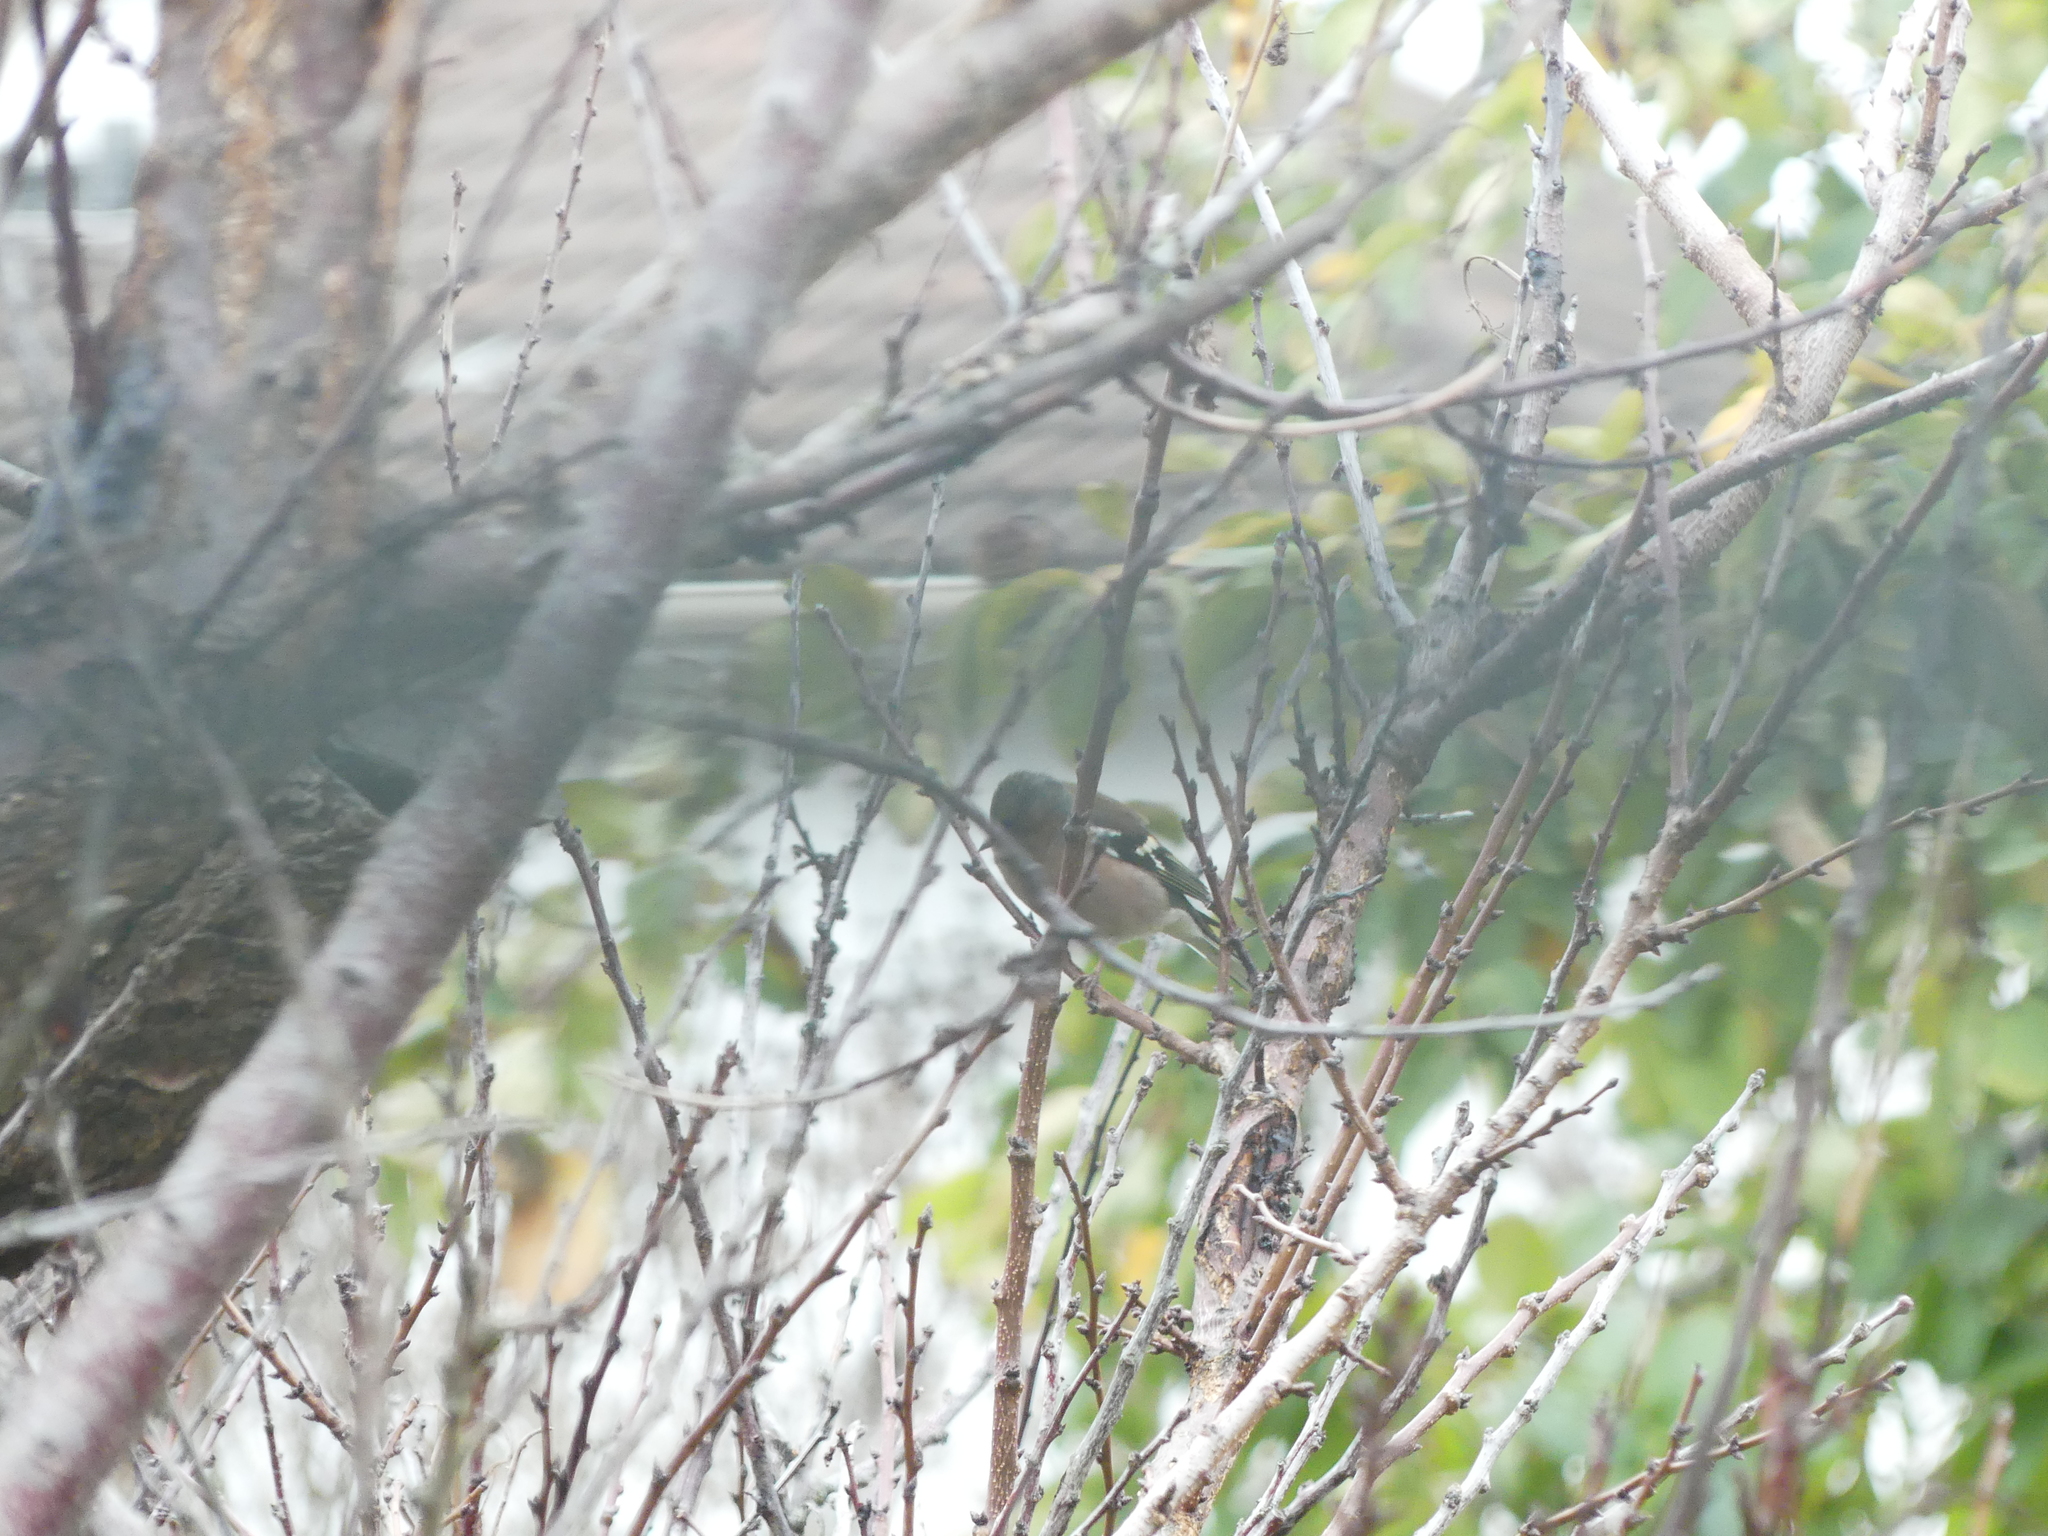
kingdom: Animalia
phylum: Chordata
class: Aves
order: Passeriformes
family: Fringillidae
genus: Fringilla
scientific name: Fringilla coelebs
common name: Common chaffinch
